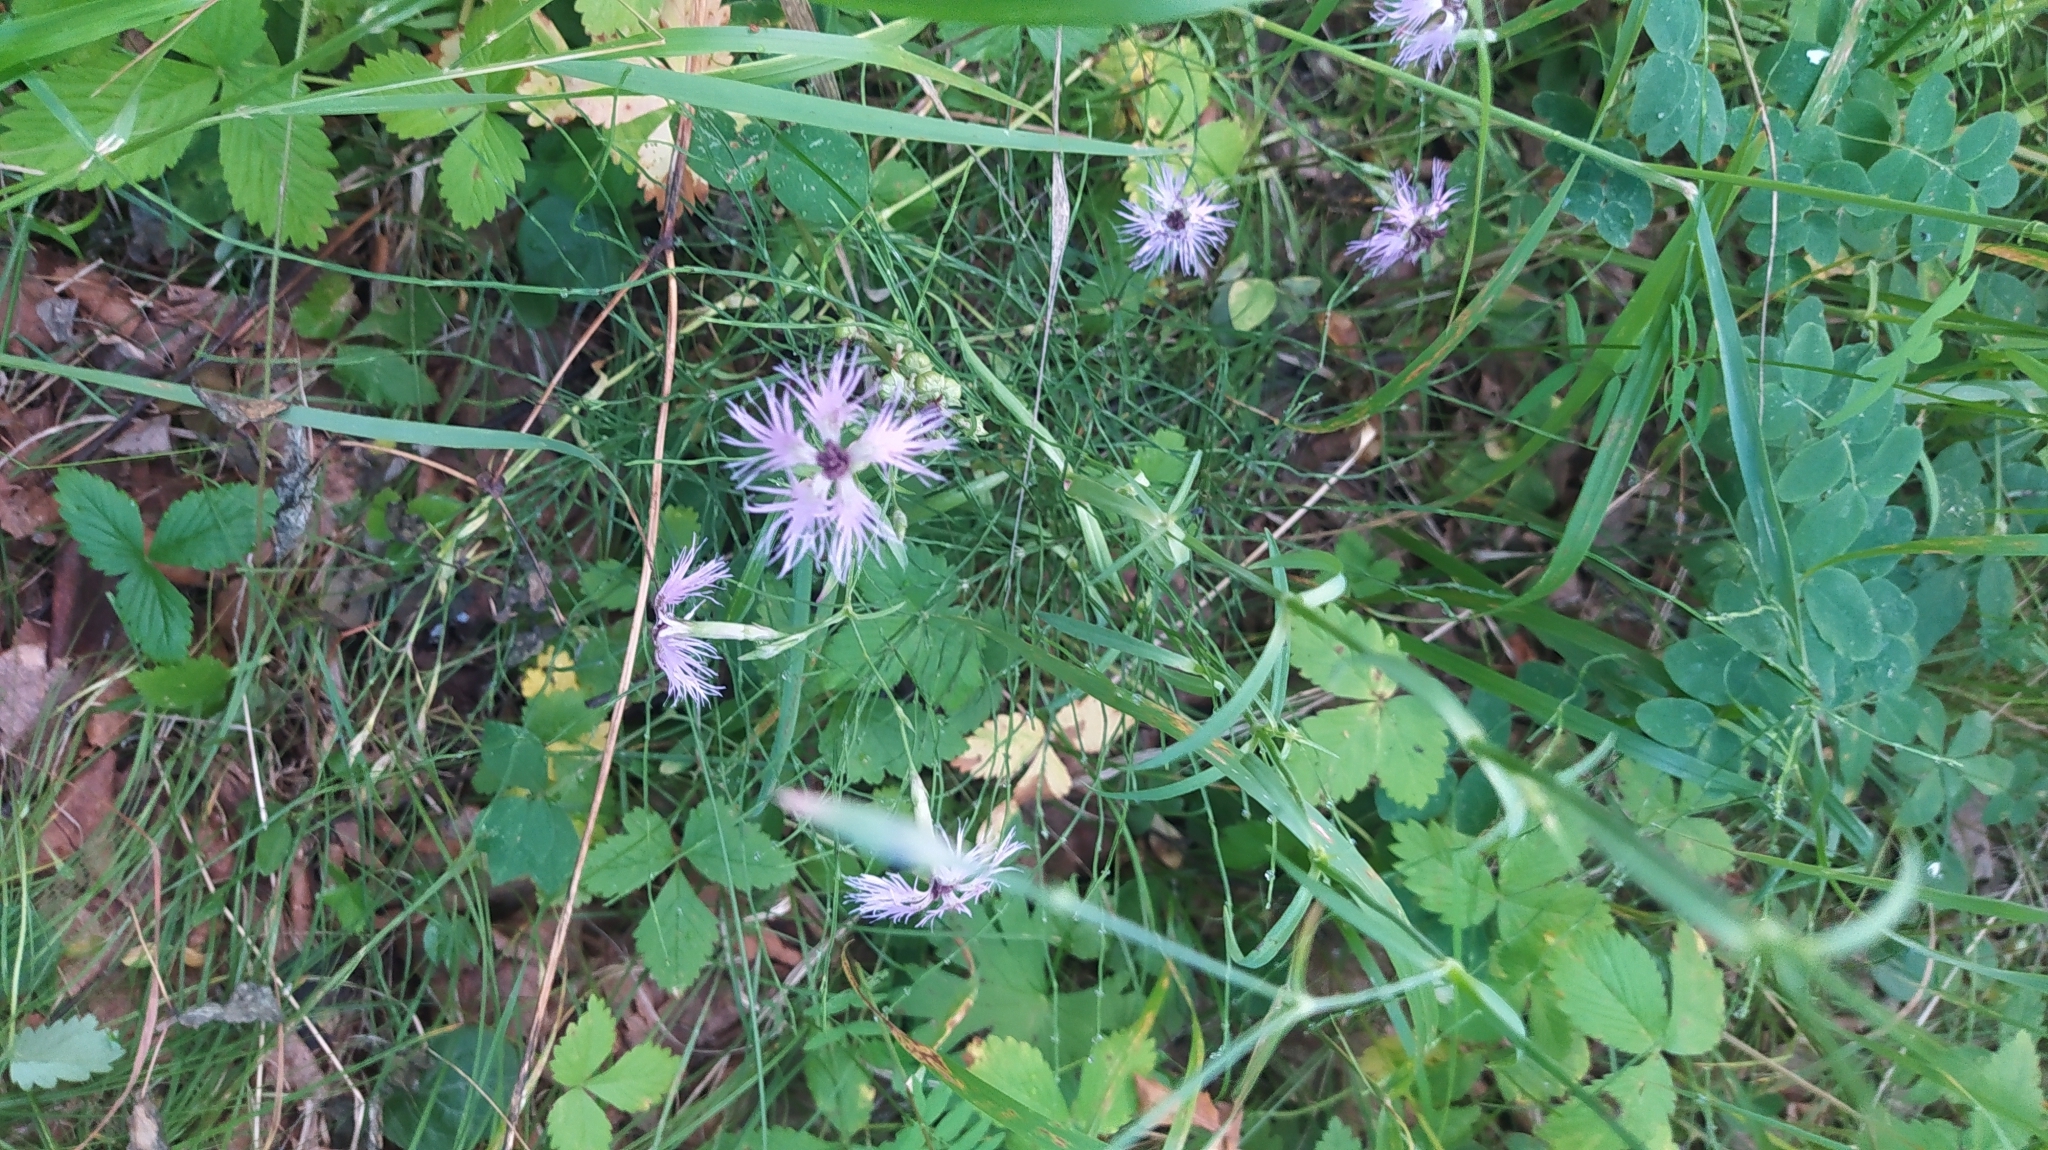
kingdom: Plantae
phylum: Tracheophyta
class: Magnoliopsida
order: Caryophyllales
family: Caryophyllaceae
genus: Dianthus
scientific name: Dianthus superbus
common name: Fringed pink
